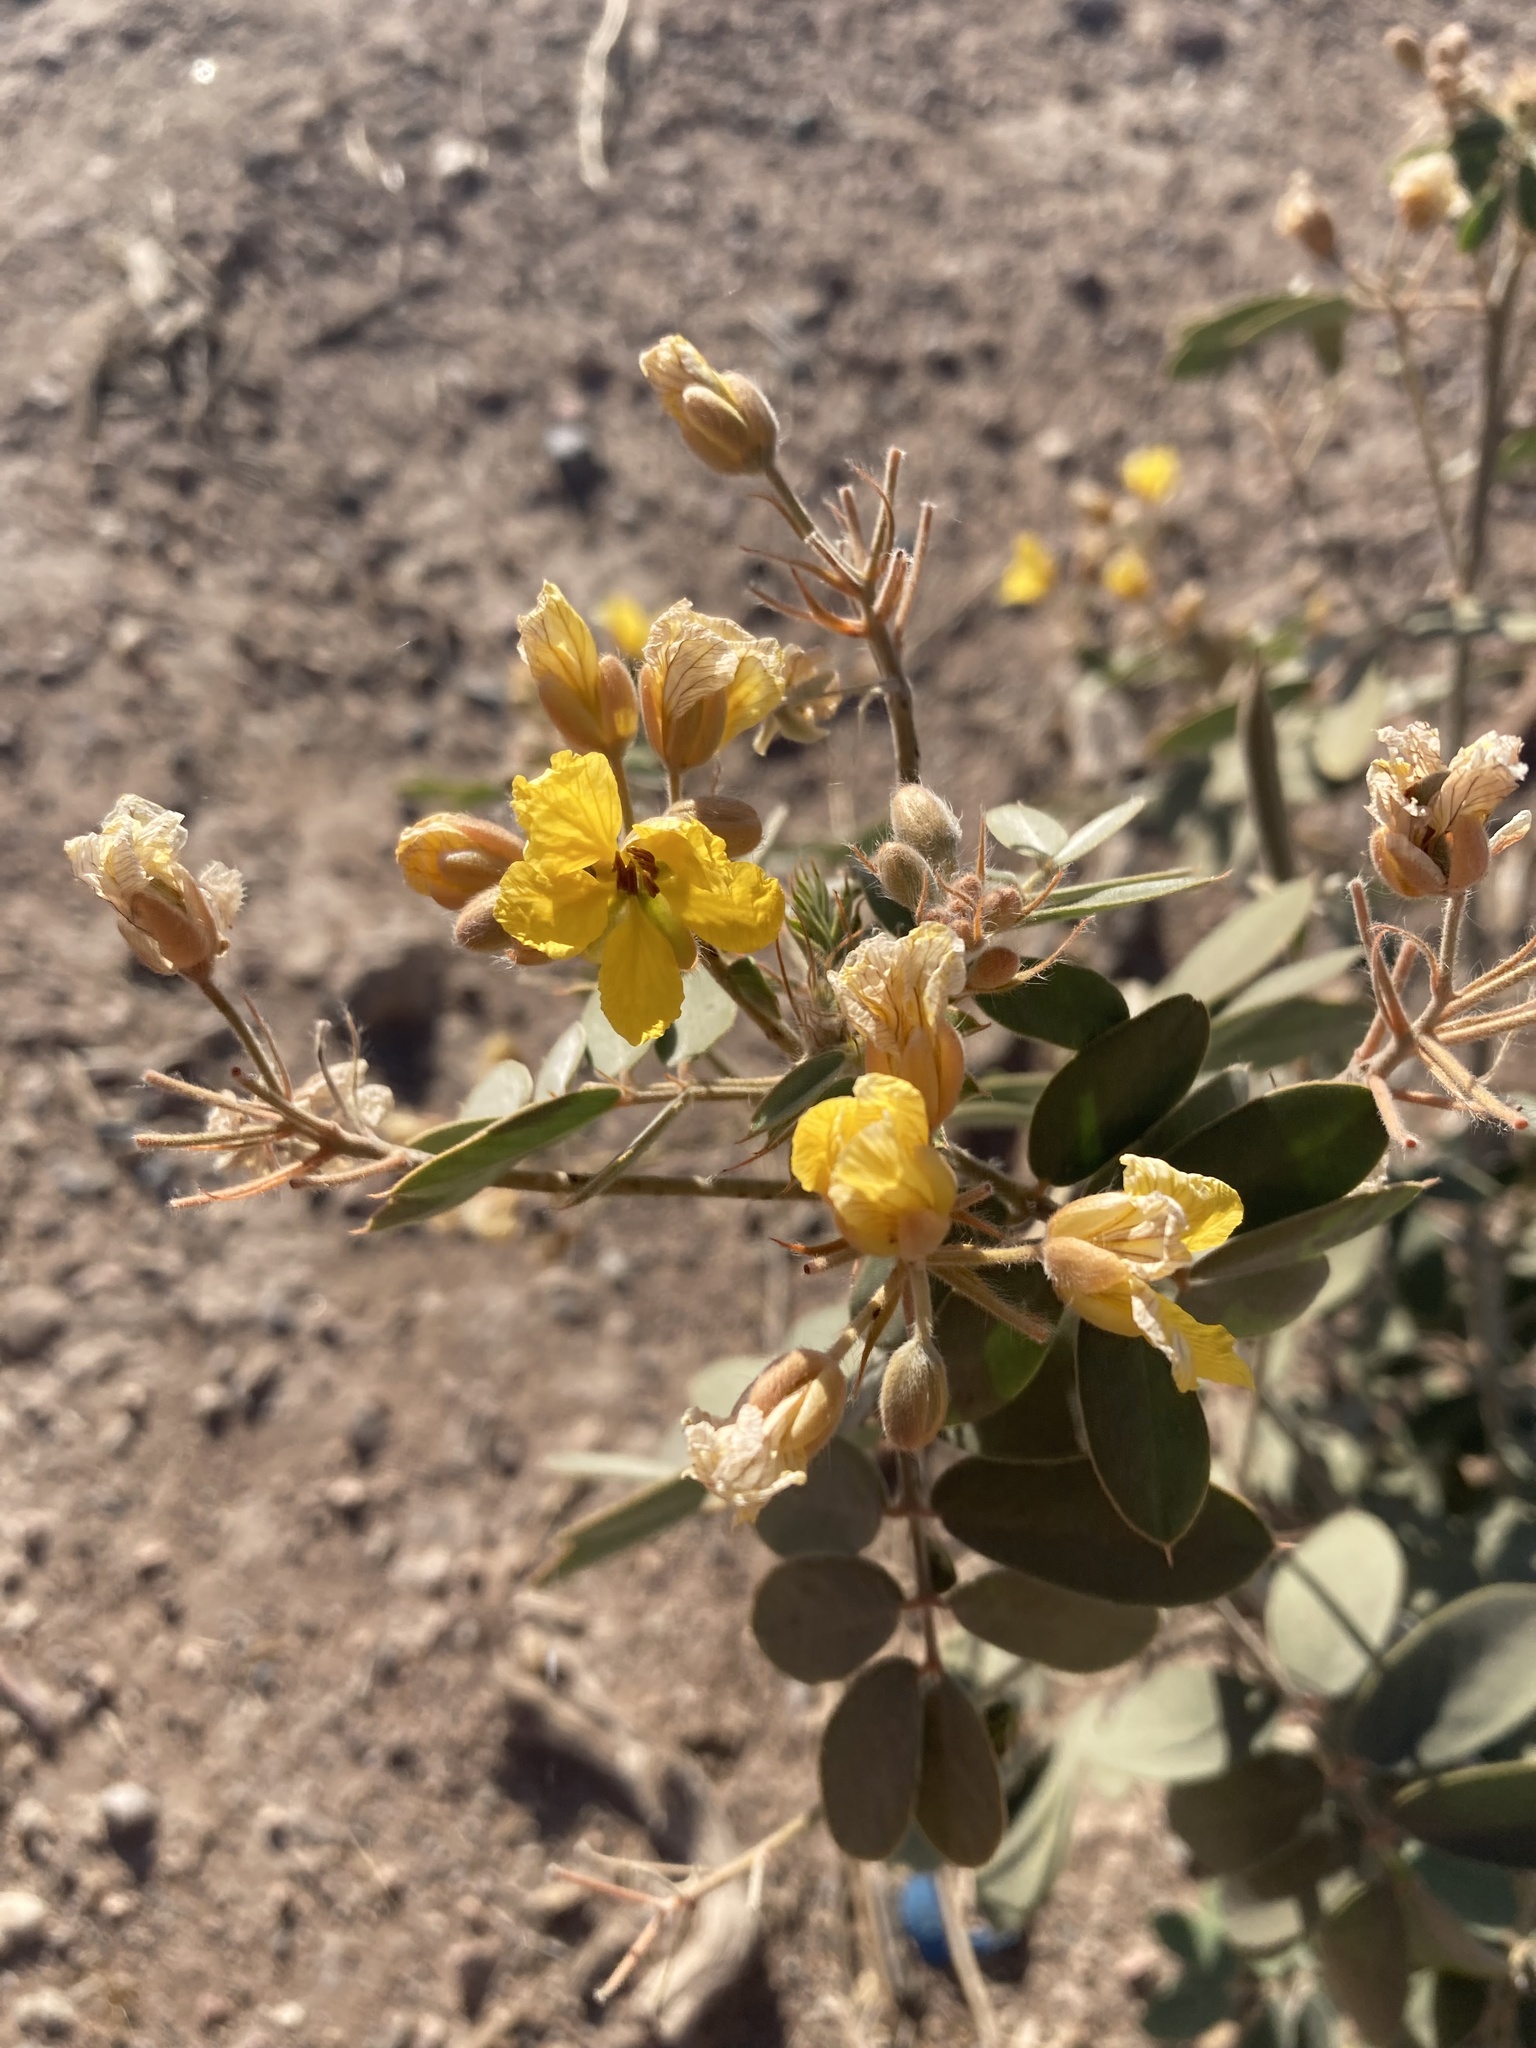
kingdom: Plantae
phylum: Tracheophyta
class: Magnoliopsida
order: Fabales
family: Fabaceae
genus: Senna
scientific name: Senna covesii
